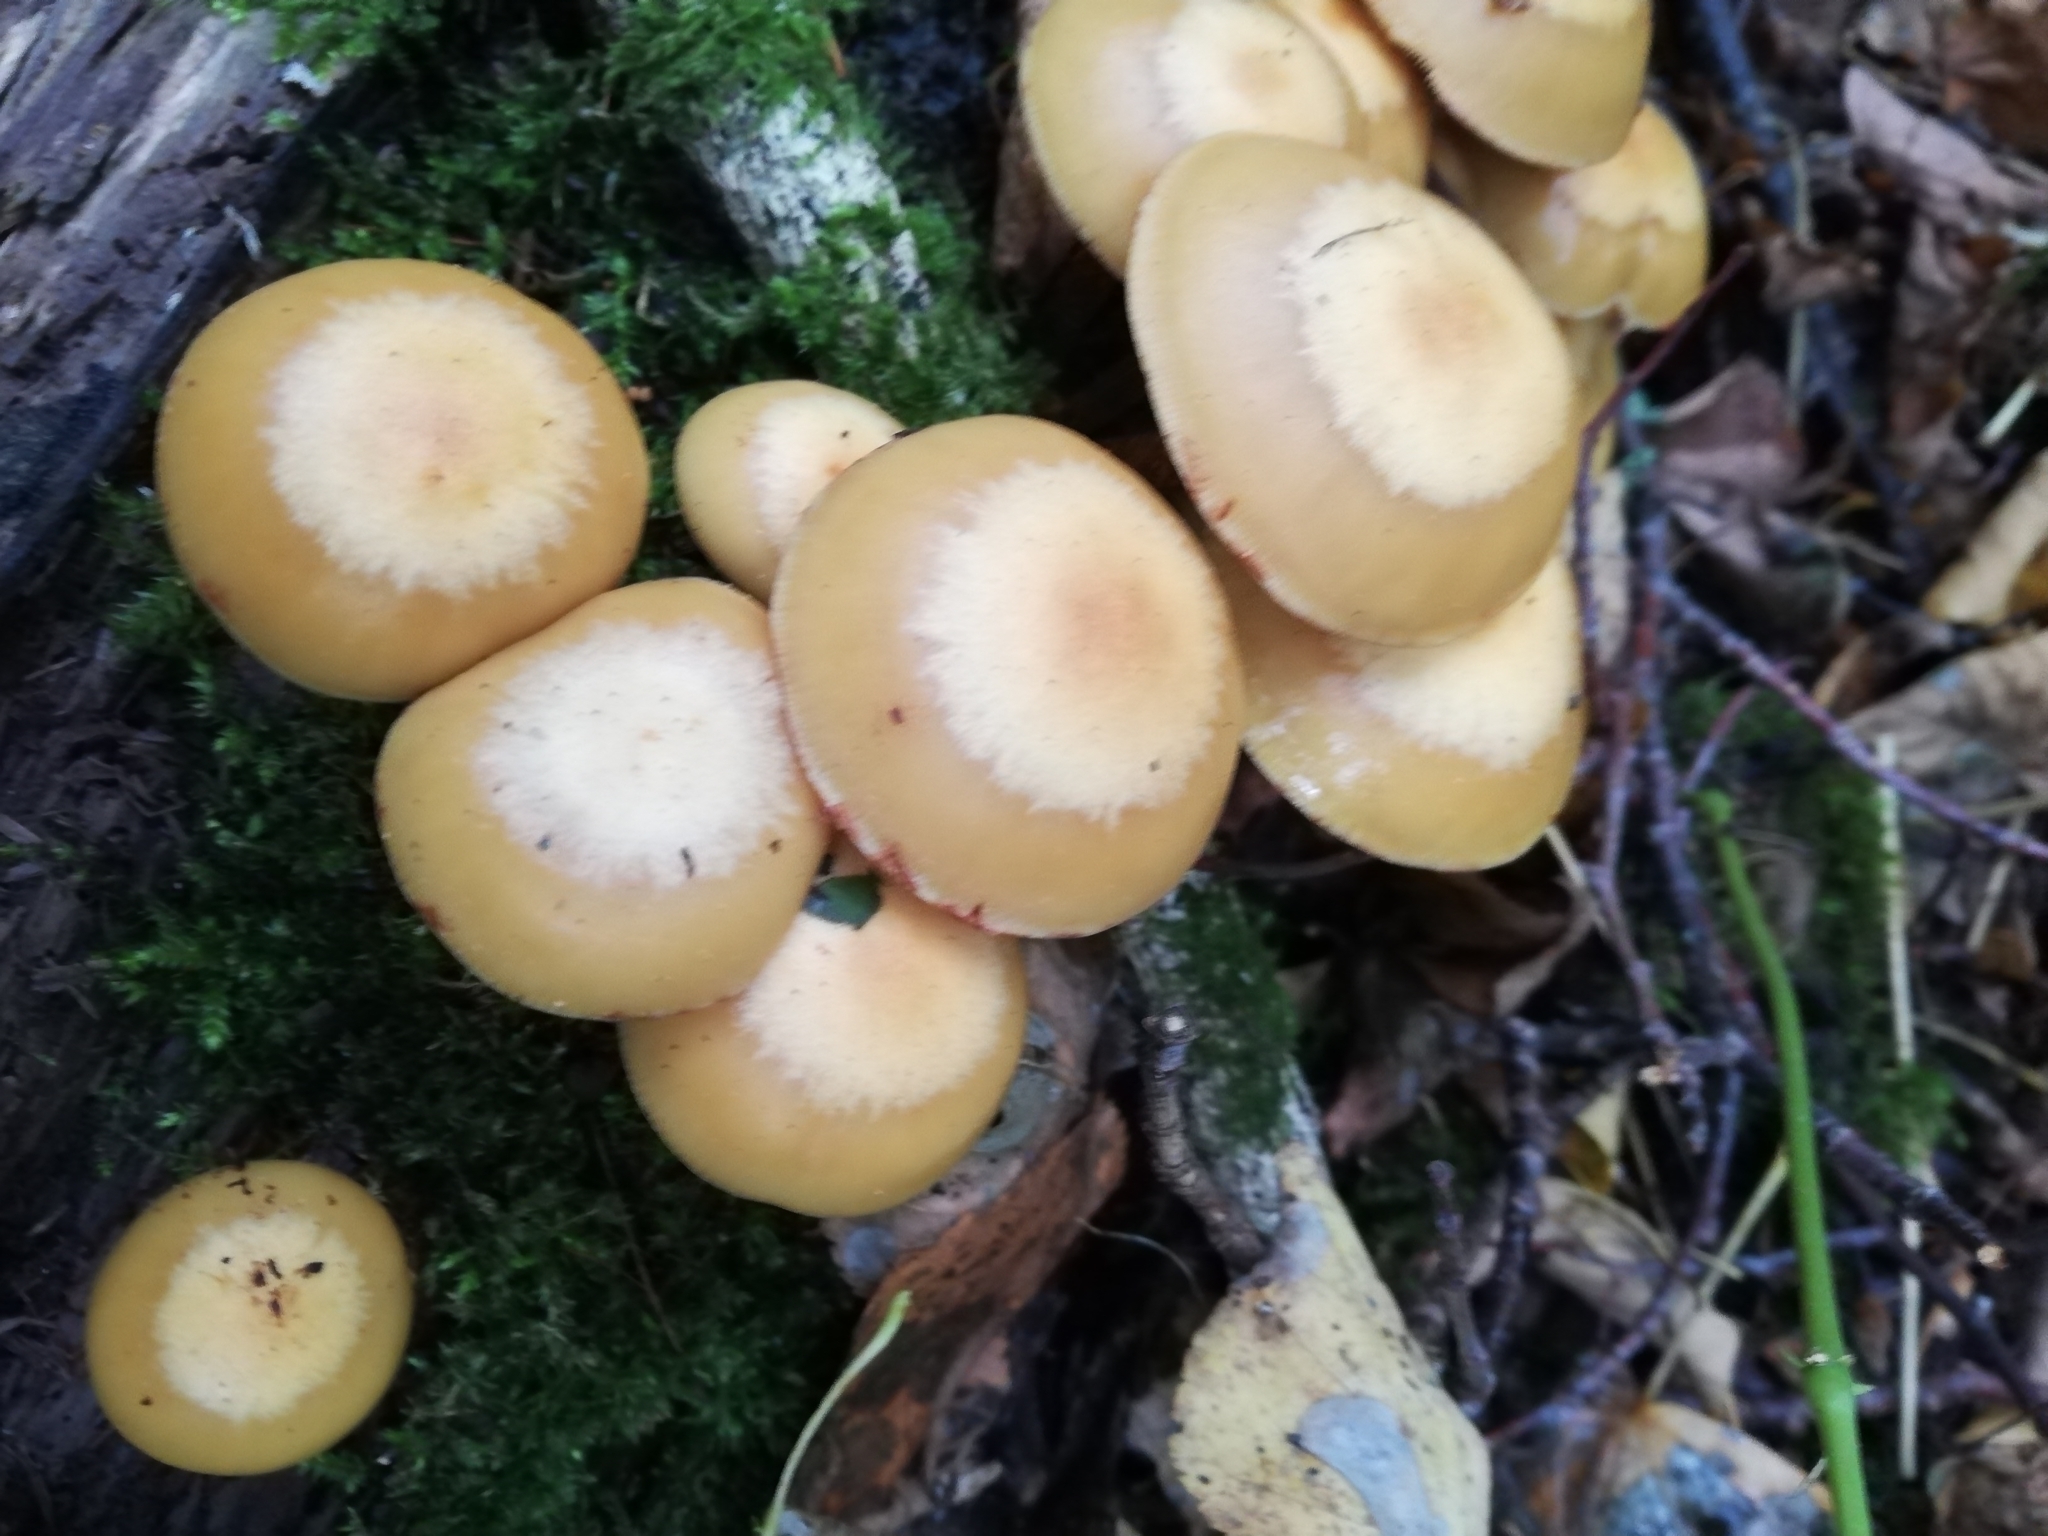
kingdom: Fungi
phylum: Basidiomycota
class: Agaricomycetes
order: Agaricales
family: Strophariaceae
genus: Kuehneromyces
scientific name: Kuehneromyces mutabilis
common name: Sheathed woodtuft
